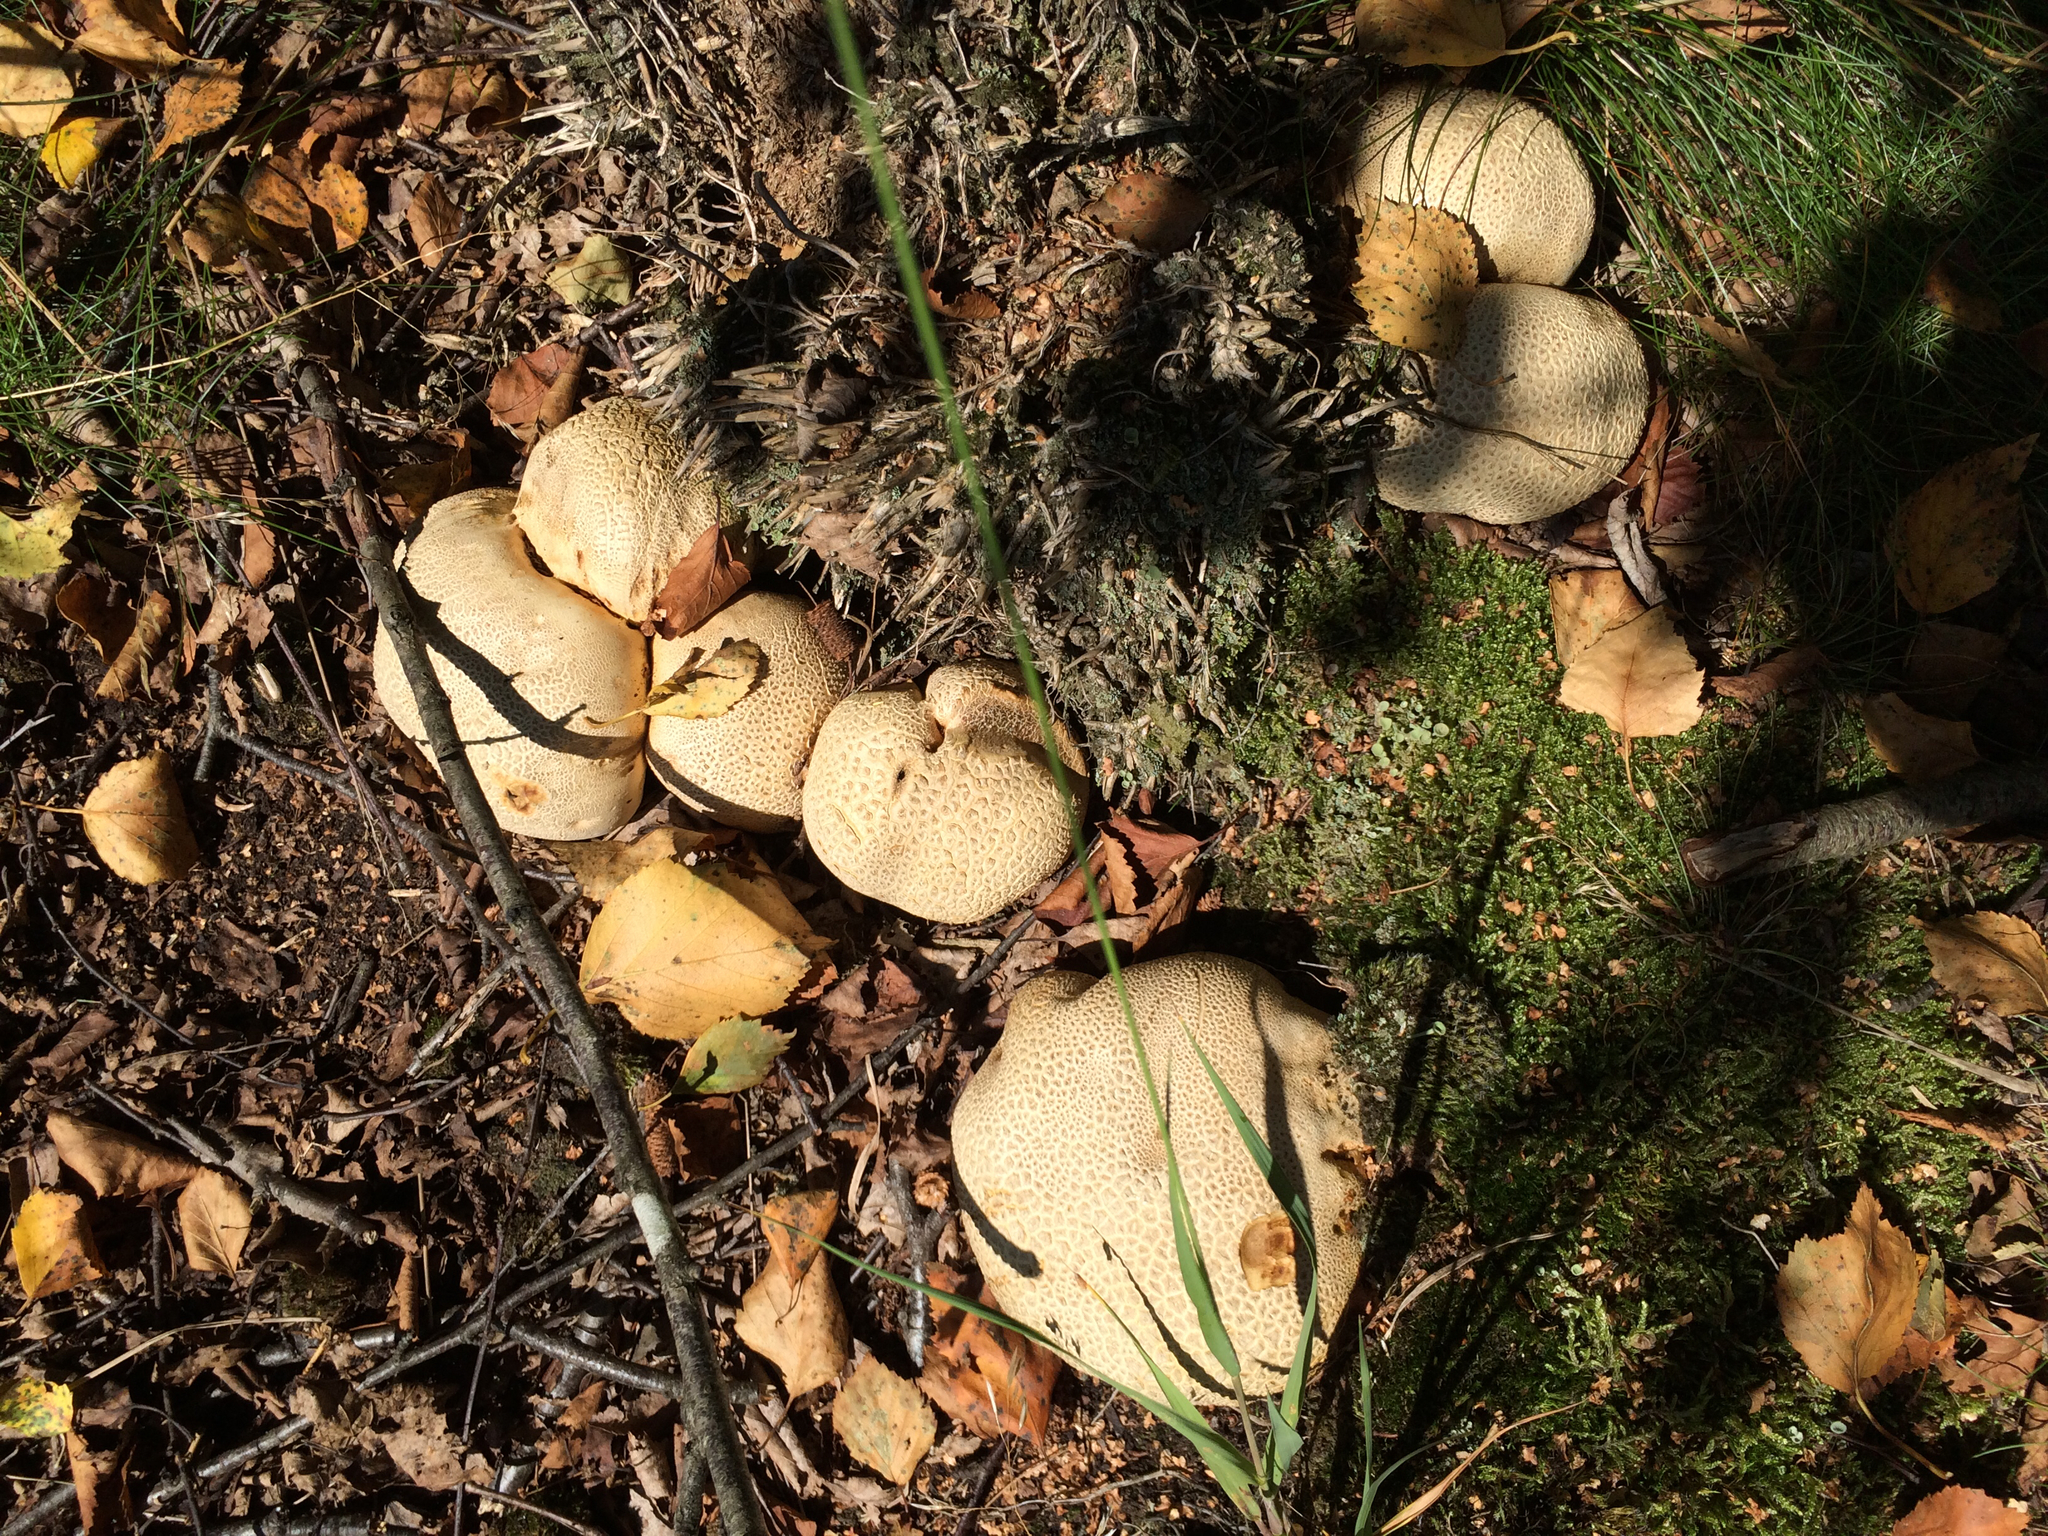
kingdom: Fungi
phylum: Basidiomycota
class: Agaricomycetes
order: Boletales
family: Sclerodermataceae
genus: Scleroderma
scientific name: Scleroderma citrinum
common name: Common earthball
